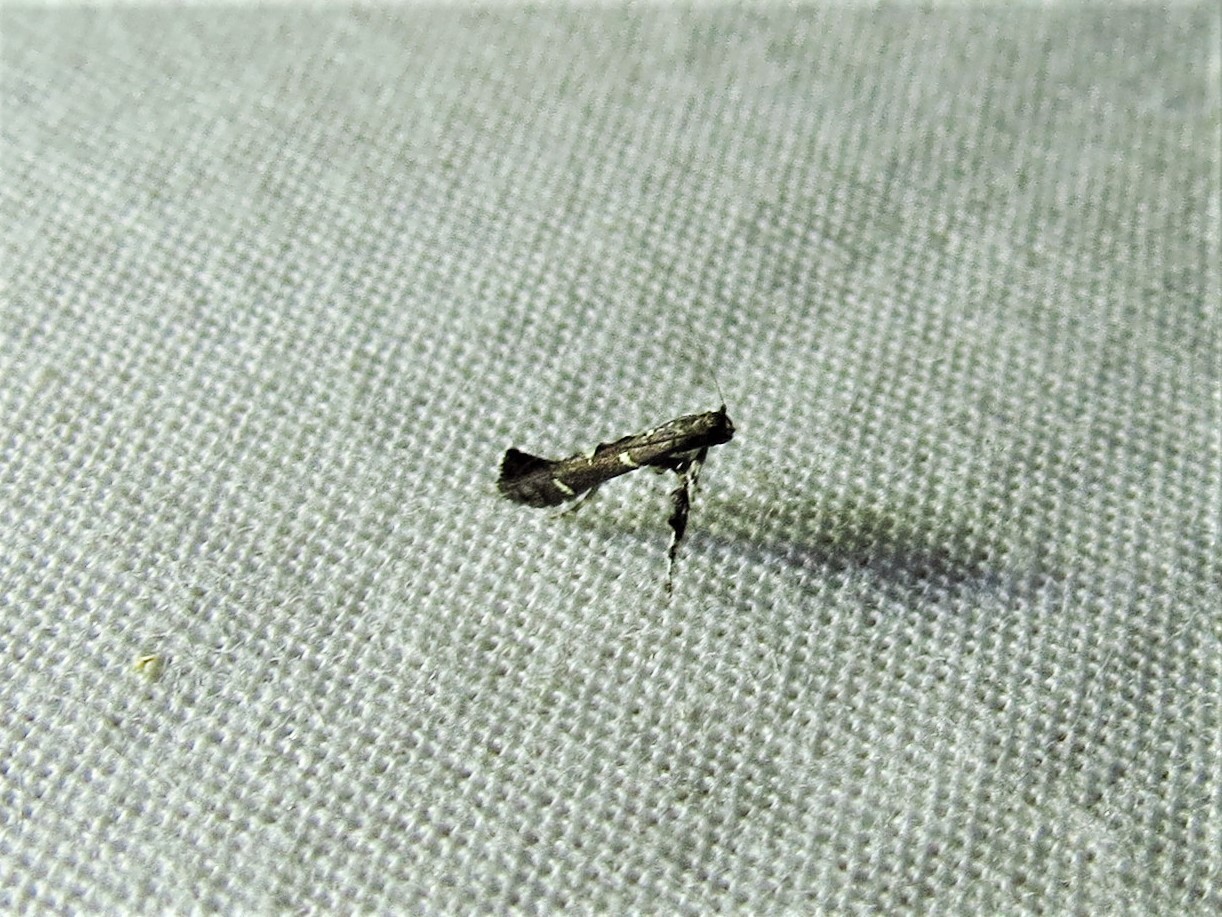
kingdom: Animalia
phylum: Arthropoda
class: Insecta
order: Lepidoptera
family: Gracillariidae
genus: Caloptilia
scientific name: Caloptilia triadicae
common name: Tallow leaf roller
